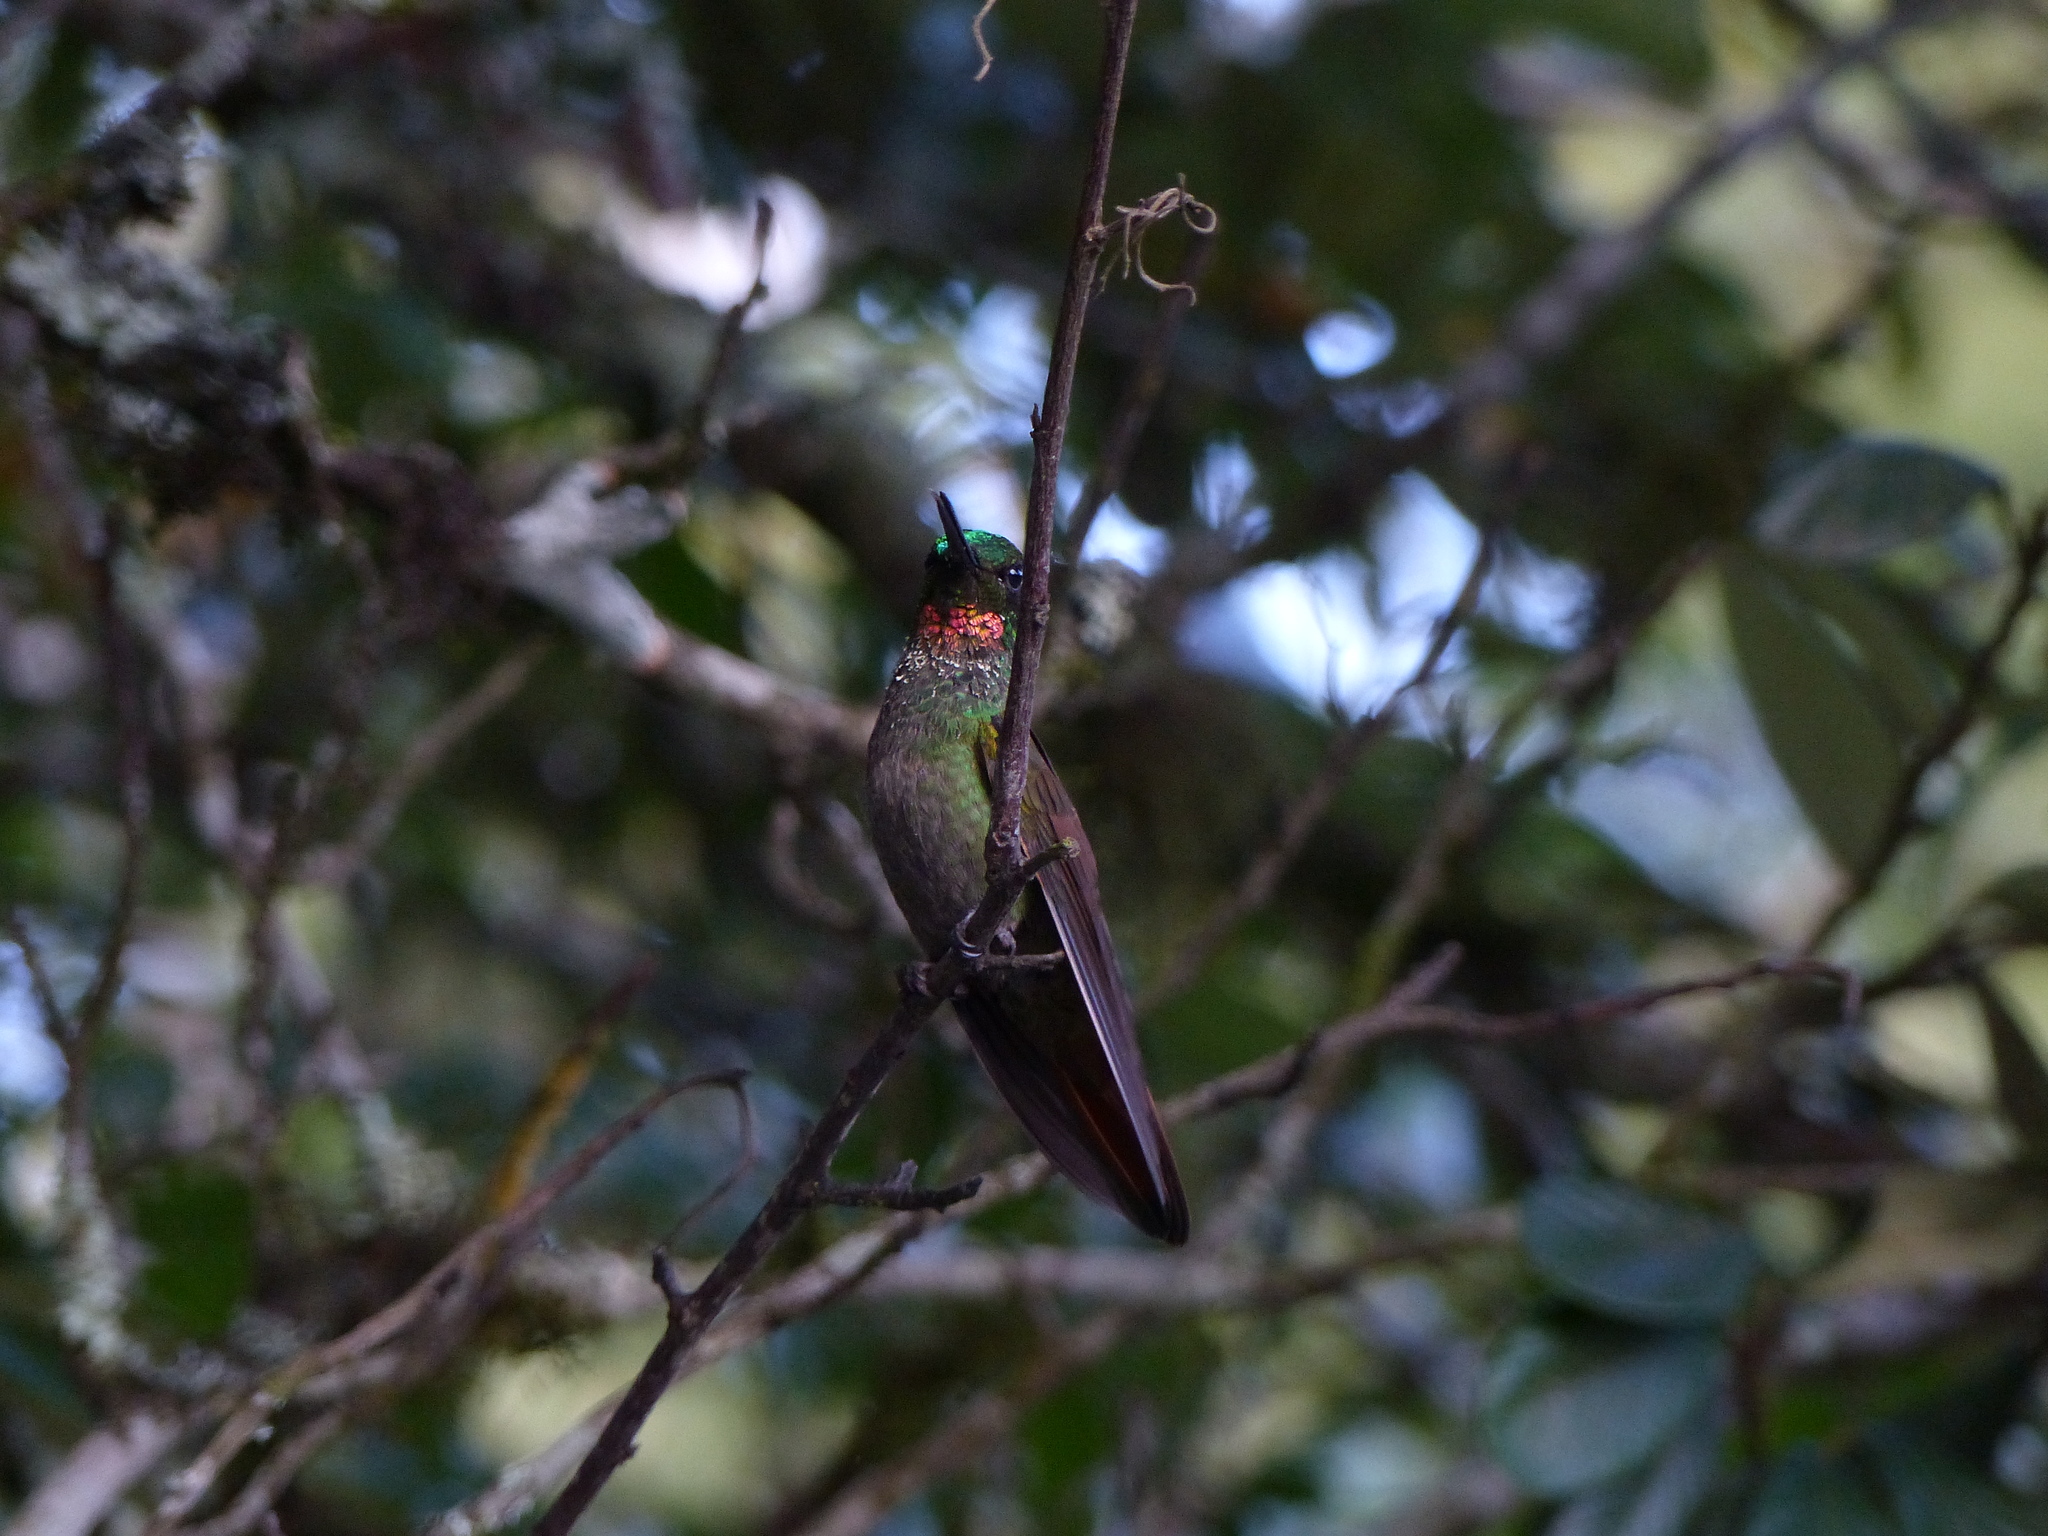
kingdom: Animalia
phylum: Chordata
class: Aves
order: Apodiformes
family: Trochilidae
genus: Clytolaema
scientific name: Clytolaema rubricauda
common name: Brazilian ruby
